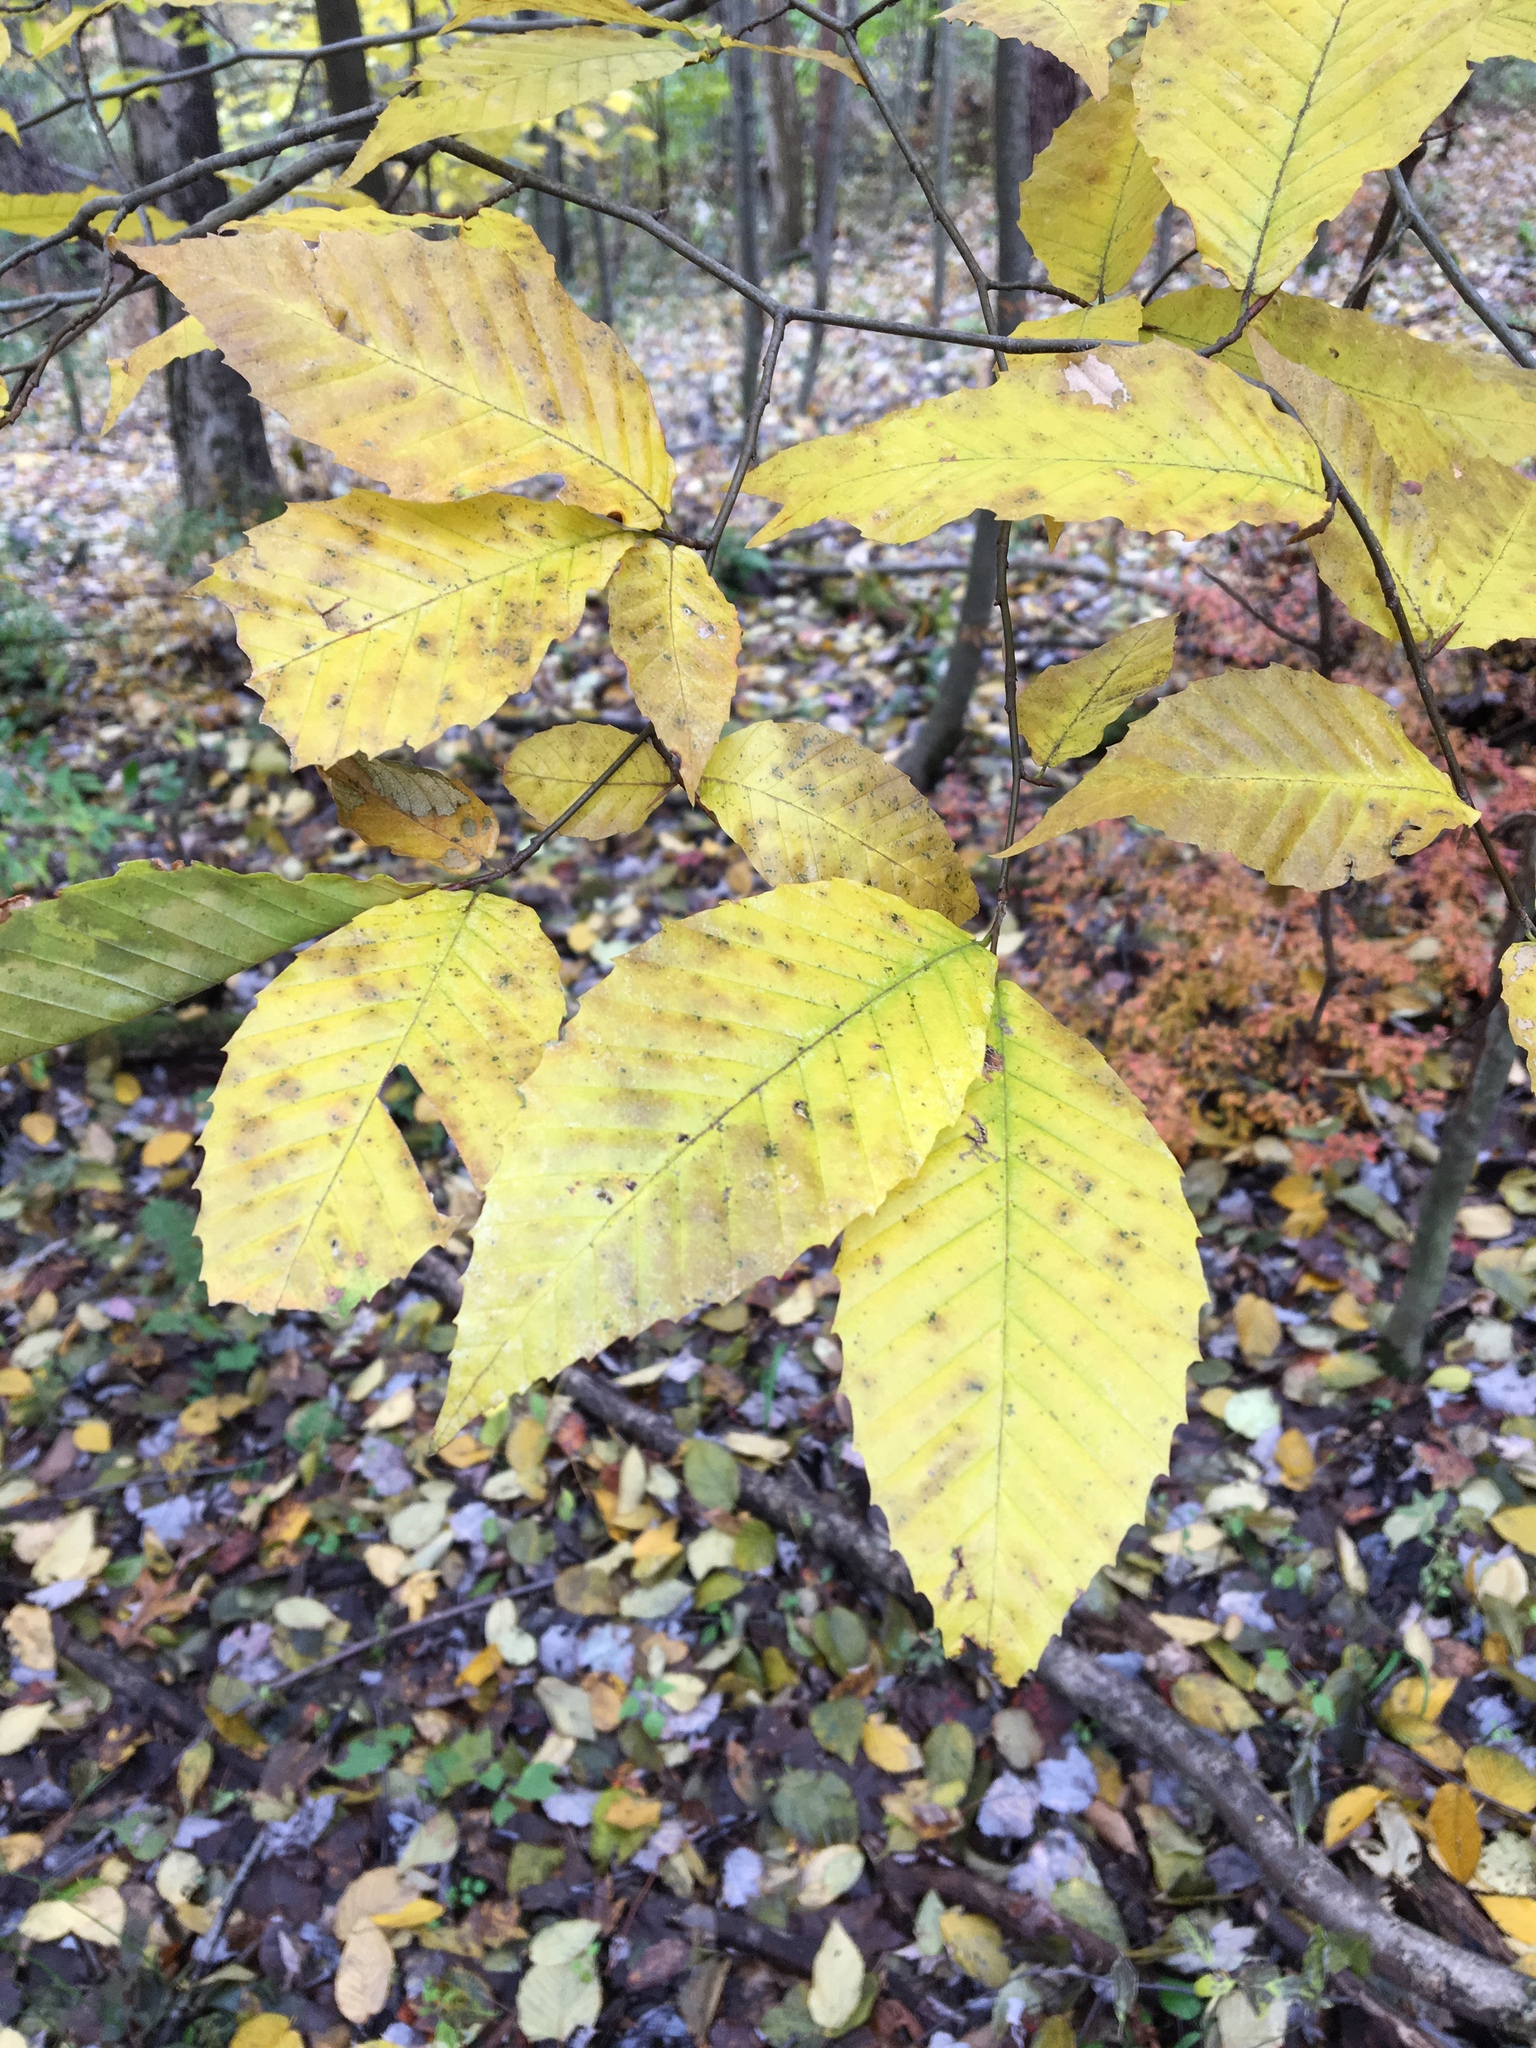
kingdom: Plantae
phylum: Tracheophyta
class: Magnoliopsida
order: Fagales
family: Fagaceae
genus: Fagus
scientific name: Fagus grandifolia
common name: American beech
